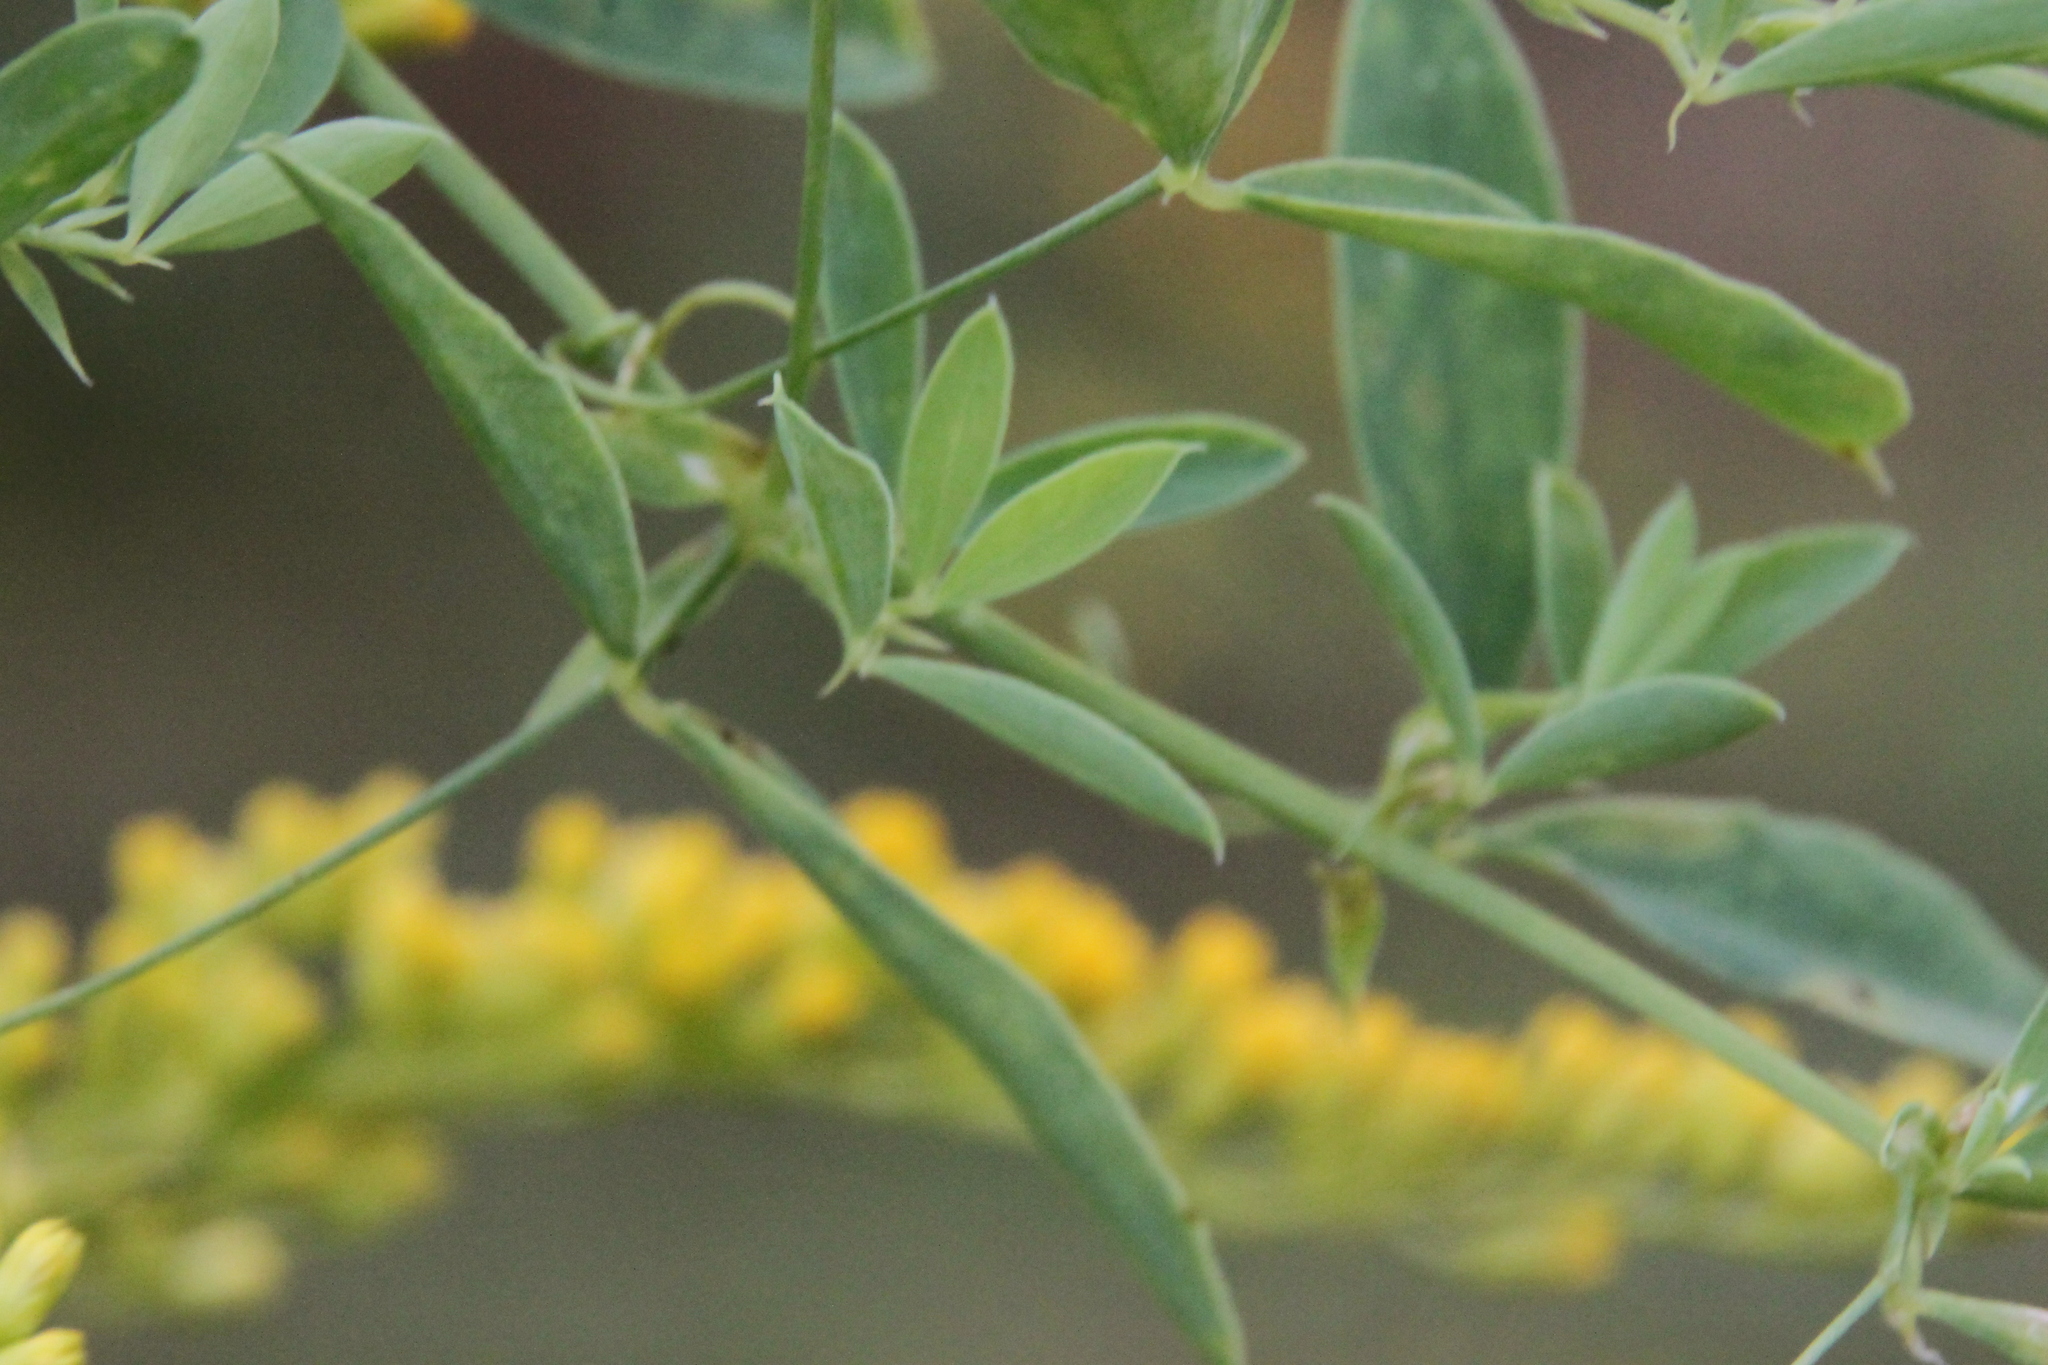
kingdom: Plantae
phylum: Tracheophyta
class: Magnoliopsida
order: Fabales
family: Fabaceae
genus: Lathyrus
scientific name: Lathyrus tuberosus
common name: Tuberous pea
